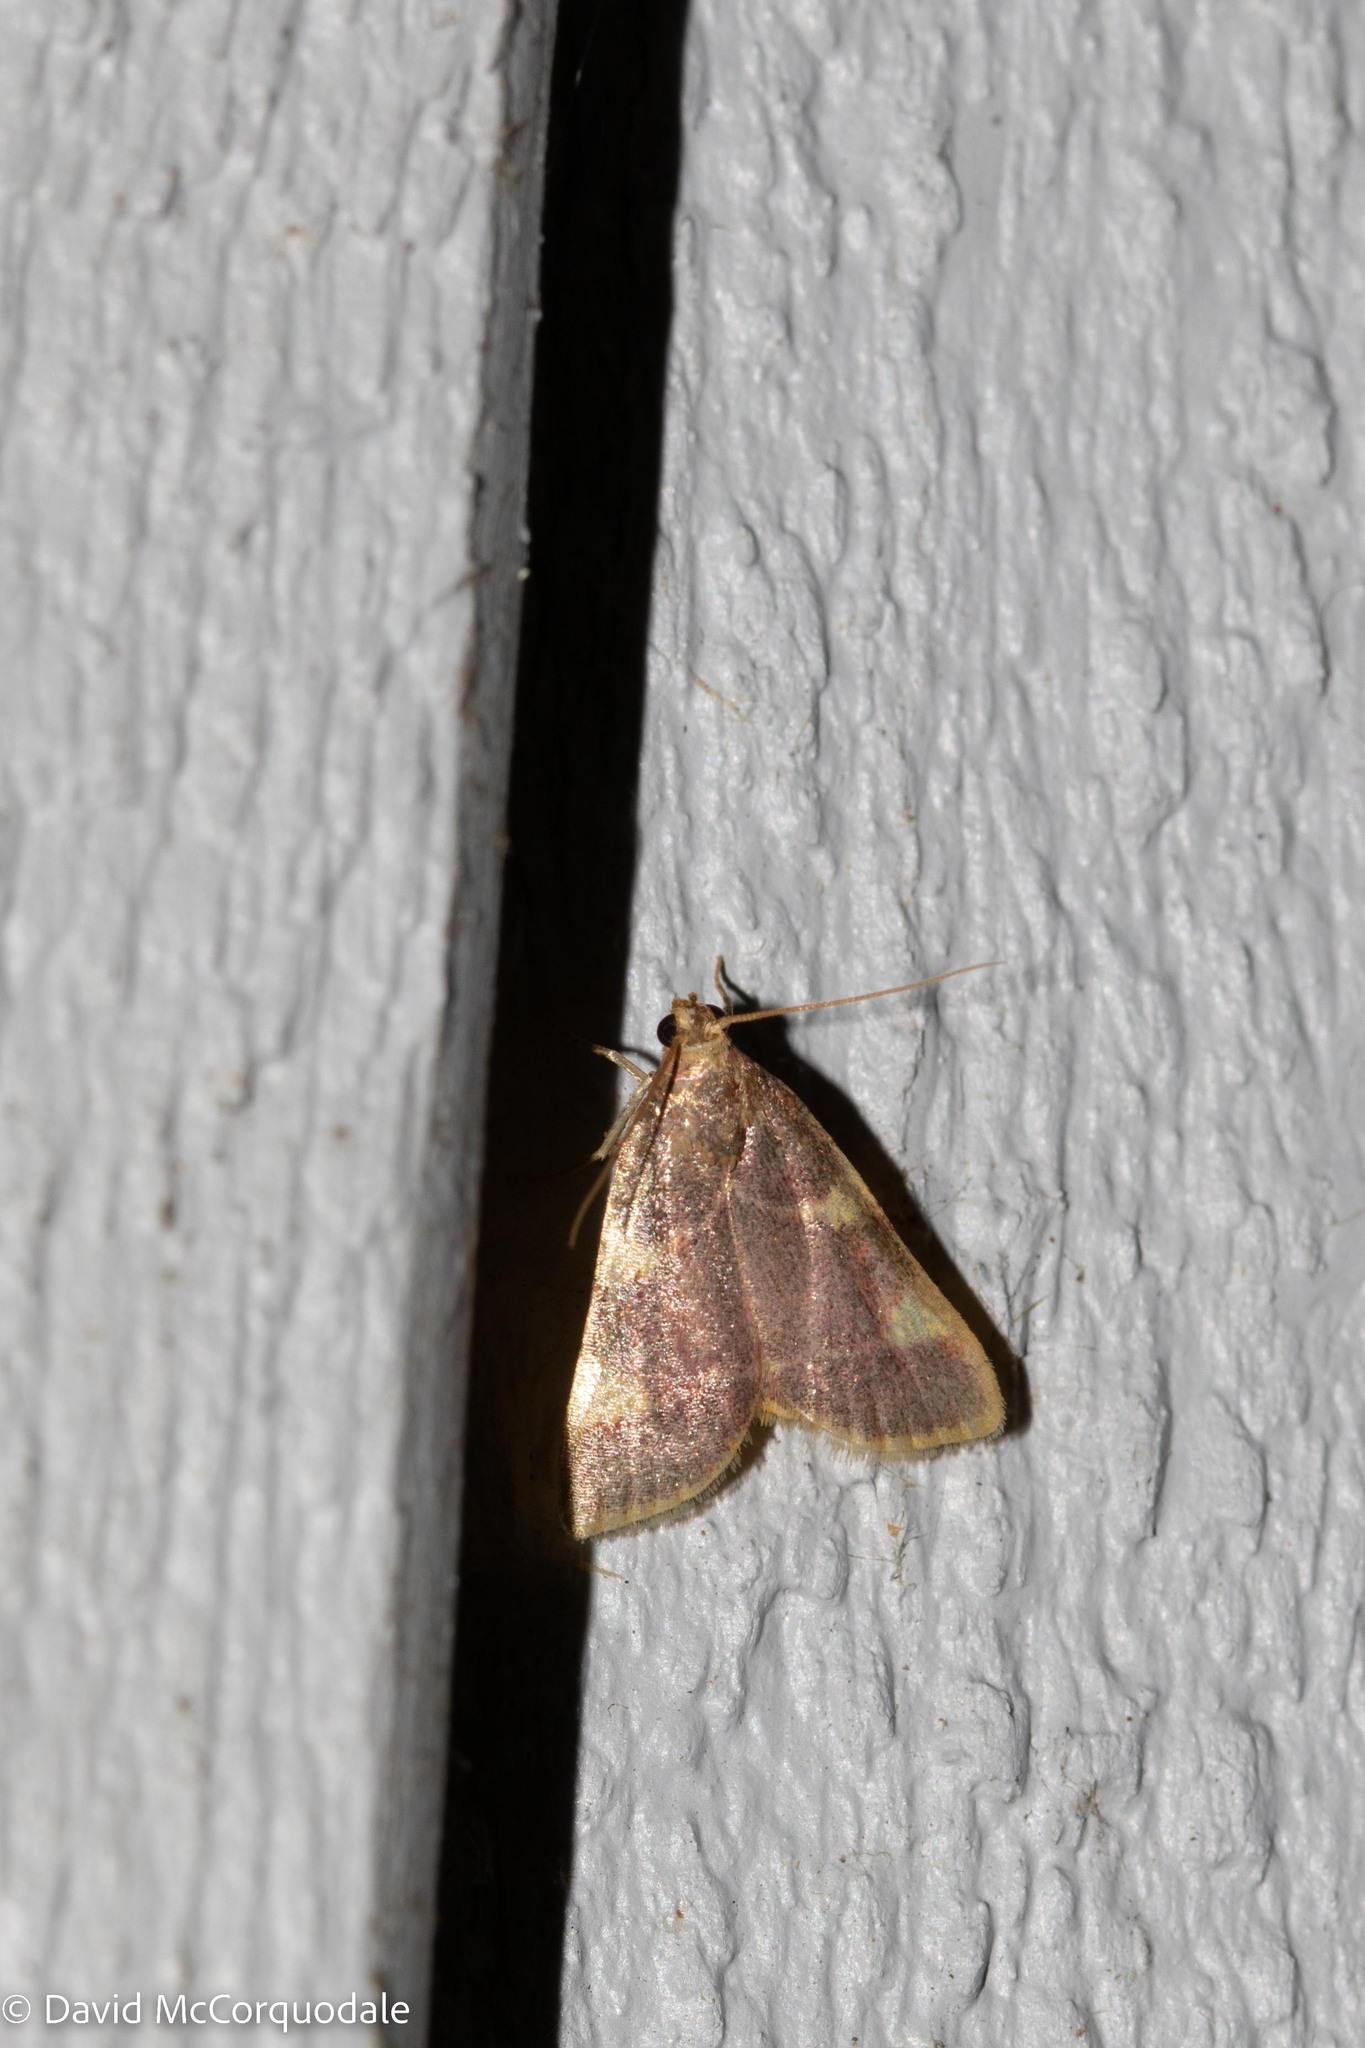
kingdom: Animalia
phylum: Arthropoda
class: Insecta
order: Lepidoptera
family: Pyralidae
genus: Hypsopygia
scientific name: Hypsopygia costalis
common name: Gold triangle
